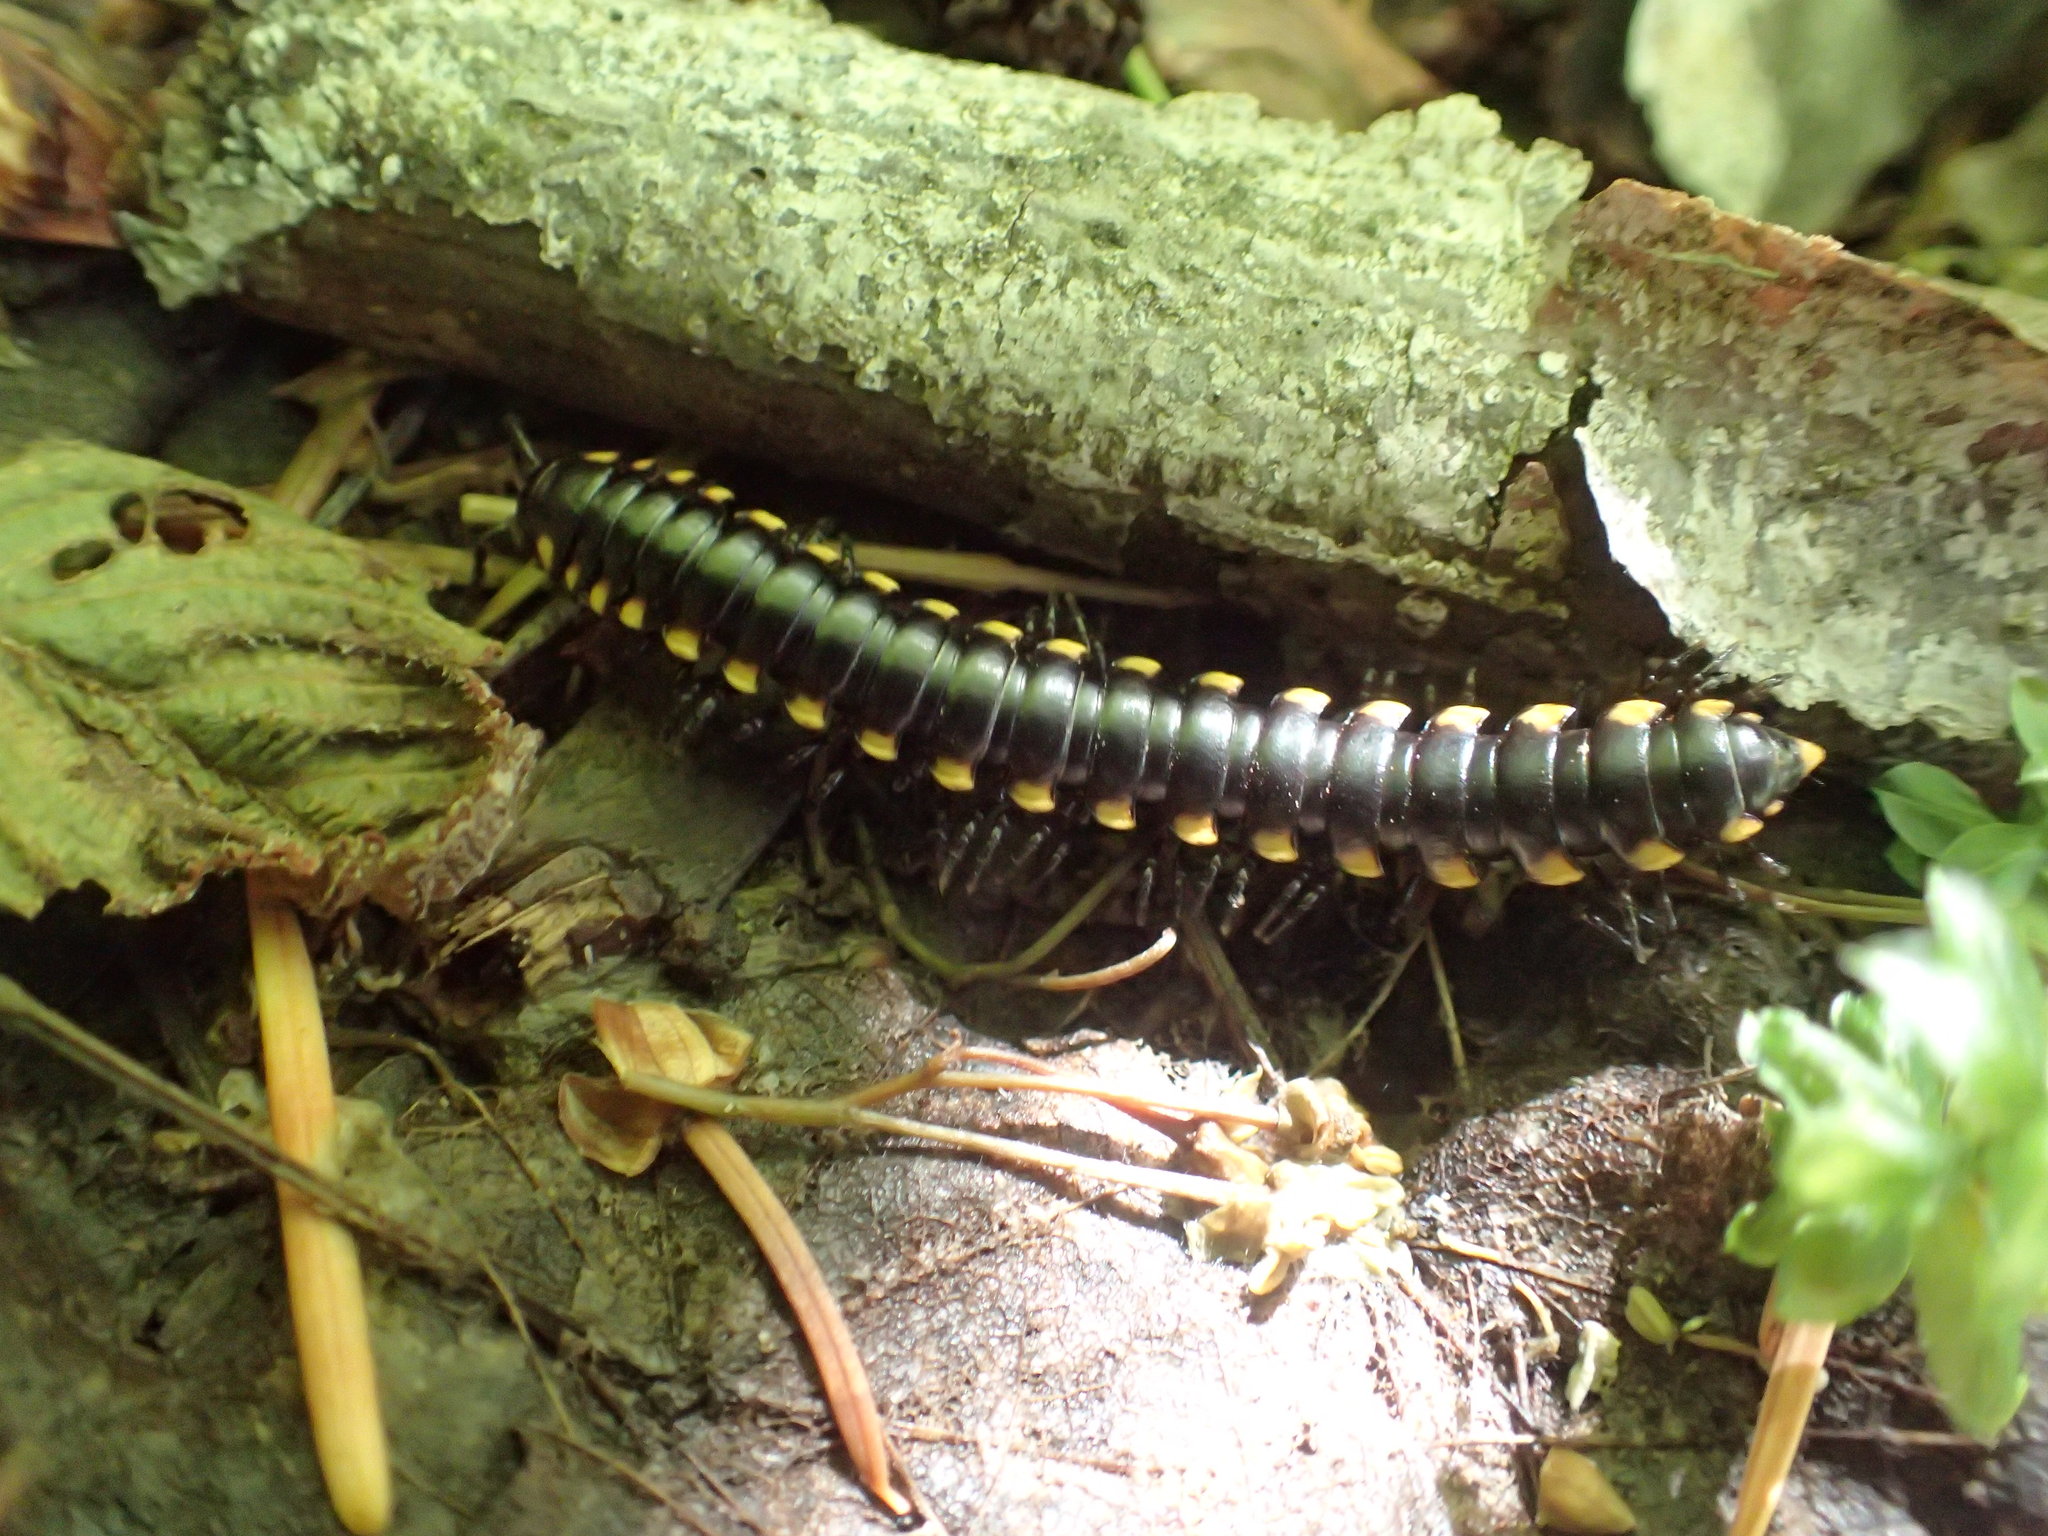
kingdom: Animalia
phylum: Arthropoda
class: Diplopoda
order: Polydesmida
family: Xystodesmidae
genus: Harpaphe
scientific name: Harpaphe haydeniana
